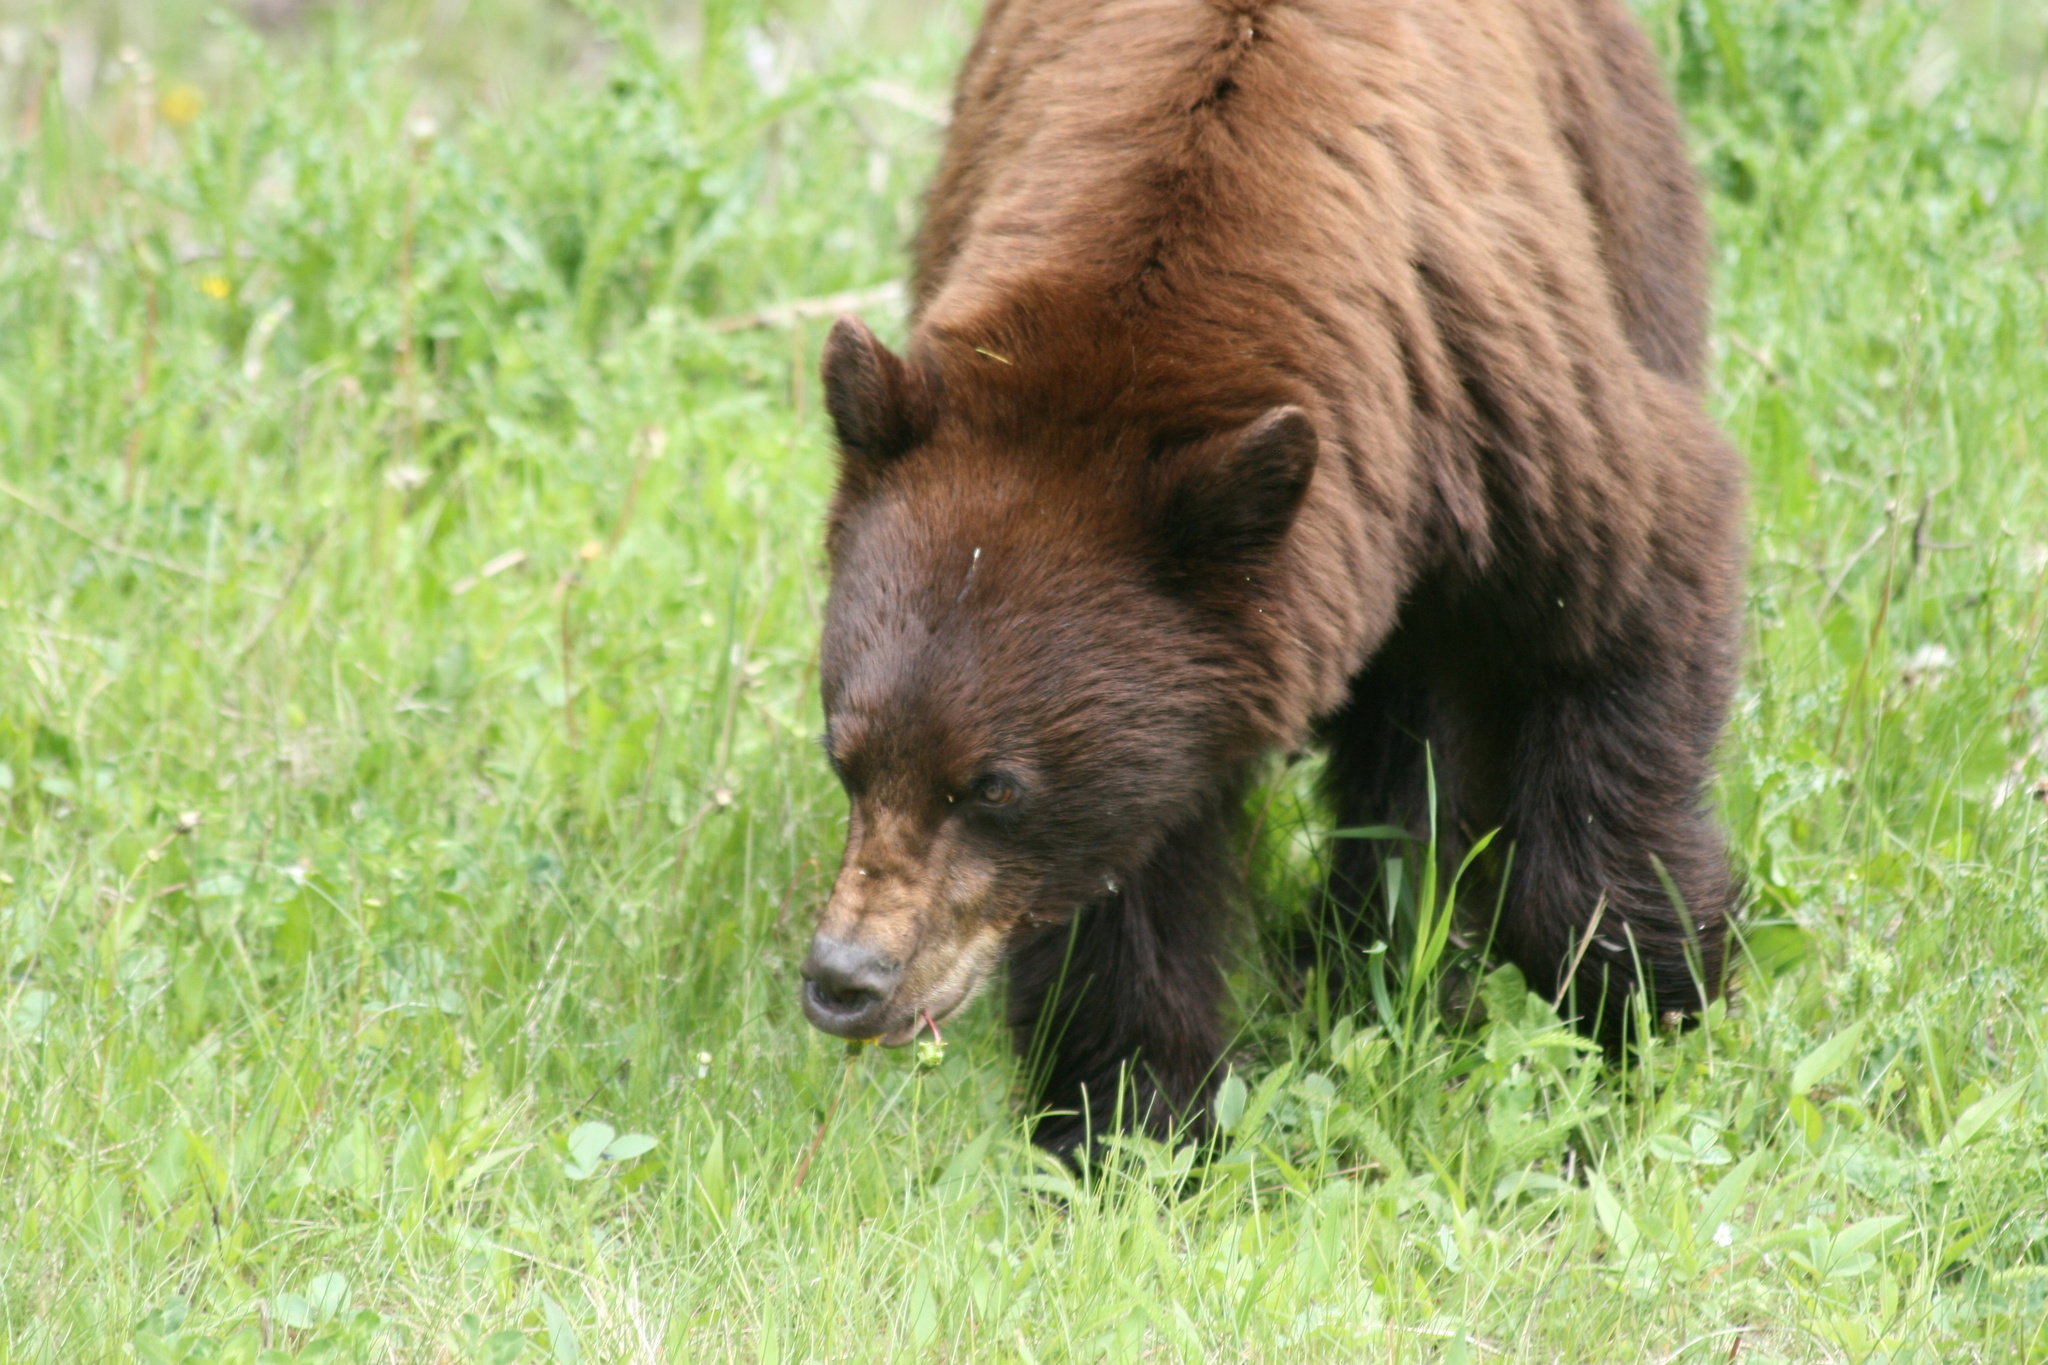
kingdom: Animalia
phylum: Chordata
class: Mammalia
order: Carnivora
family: Ursidae
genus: Ursus
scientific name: Ursus americanus
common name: American black bear
